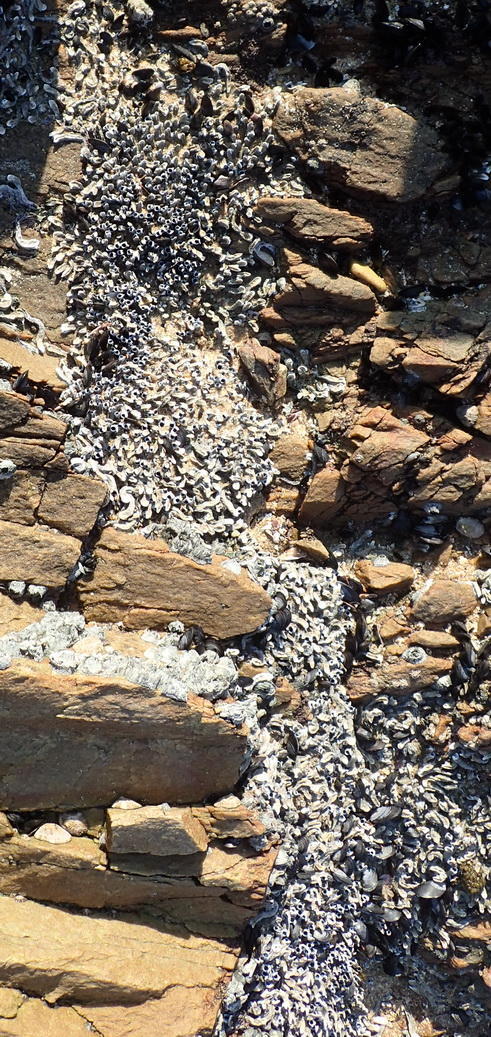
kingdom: Animalia
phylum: Annelida
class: Polychaeta
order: Sabellida
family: Serpulidae
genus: Spirobranchus
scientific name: Spirobranchus kraussii
